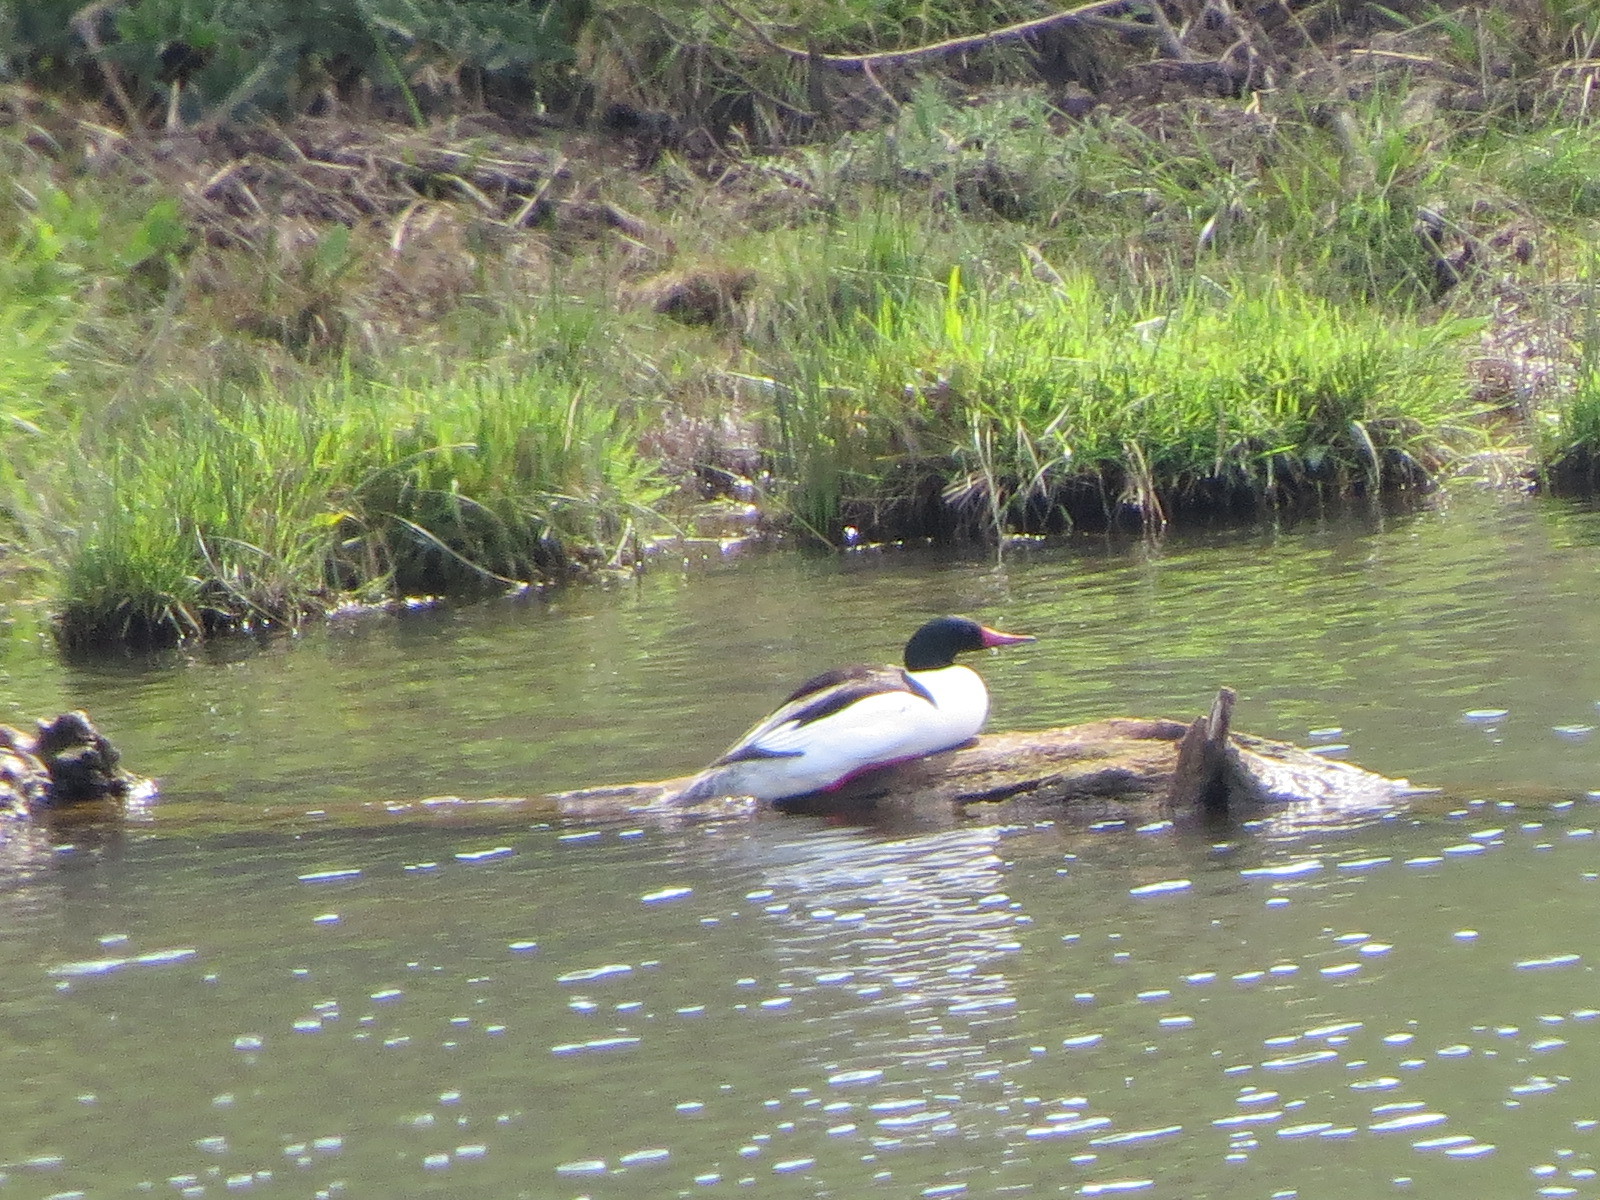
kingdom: Animalia
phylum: Chordata
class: Aves
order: Anseriformes
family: Anatidae
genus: Mergus
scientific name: Mergus merganser
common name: Common merganser
